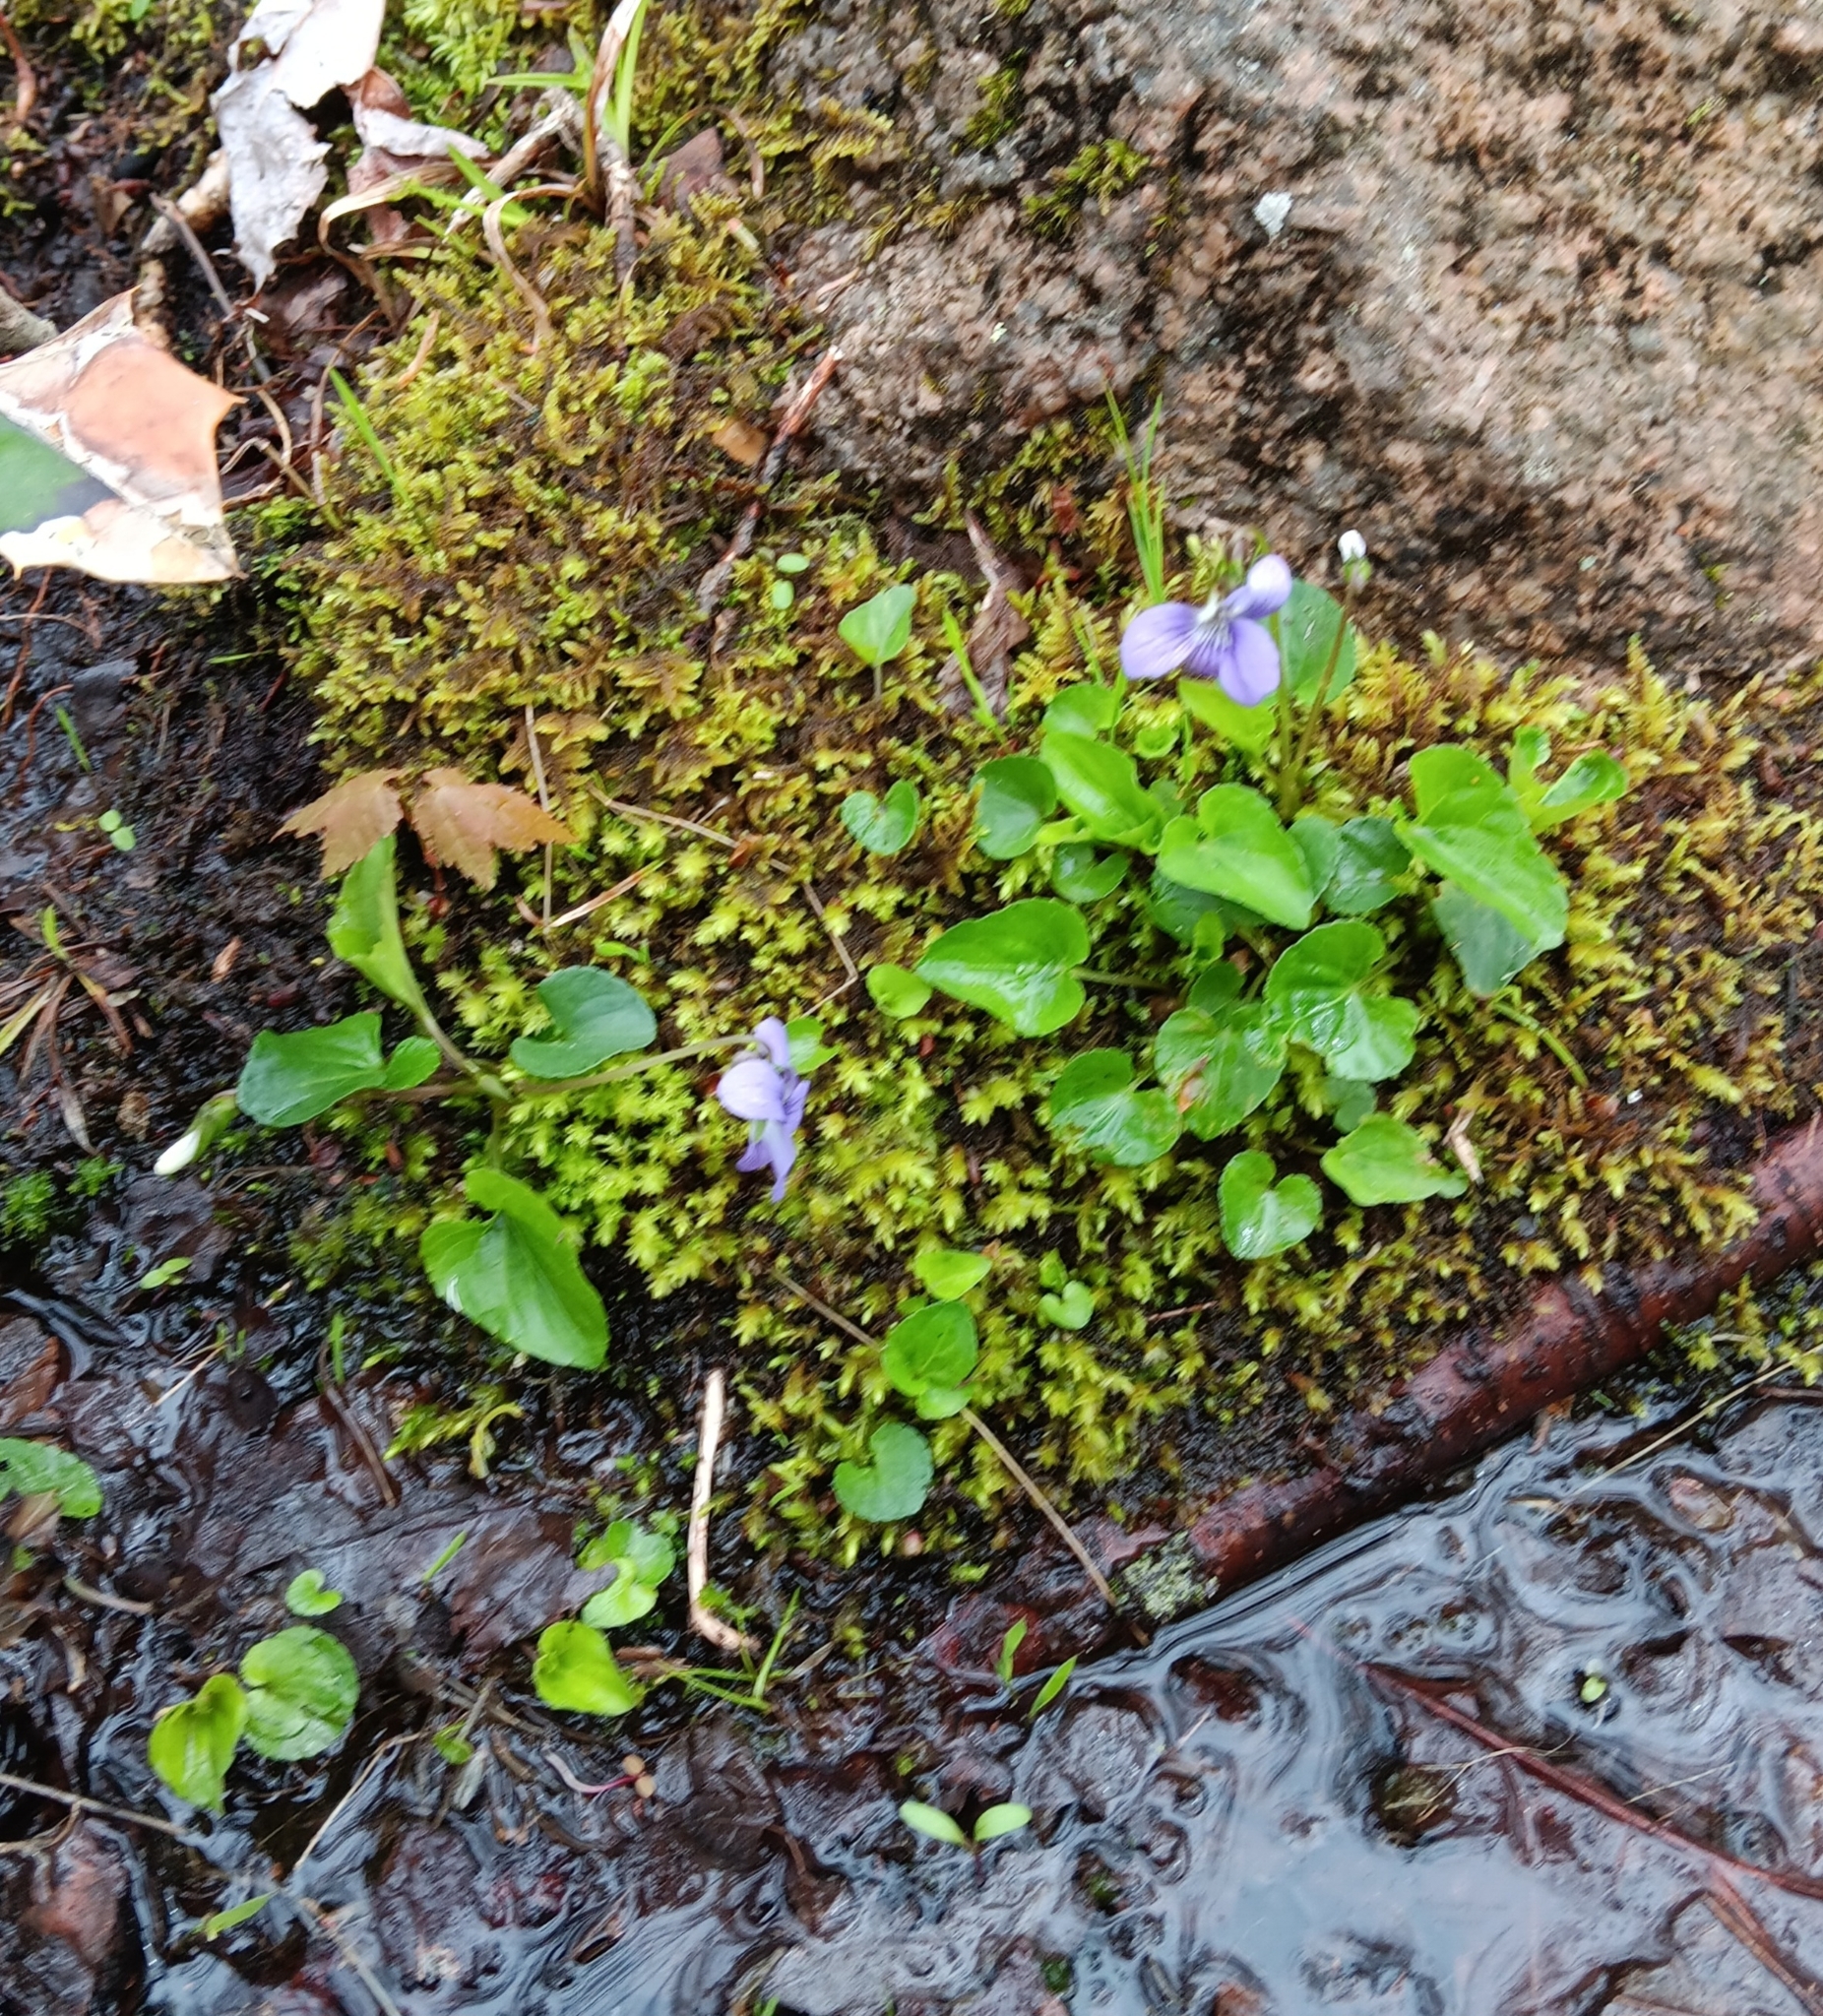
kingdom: Plantae
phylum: Tracheophyta
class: Magnoliopsida
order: Malpighiales
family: Violaceae
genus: Viola
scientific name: Viola cucullata
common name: Marsh blue violet
